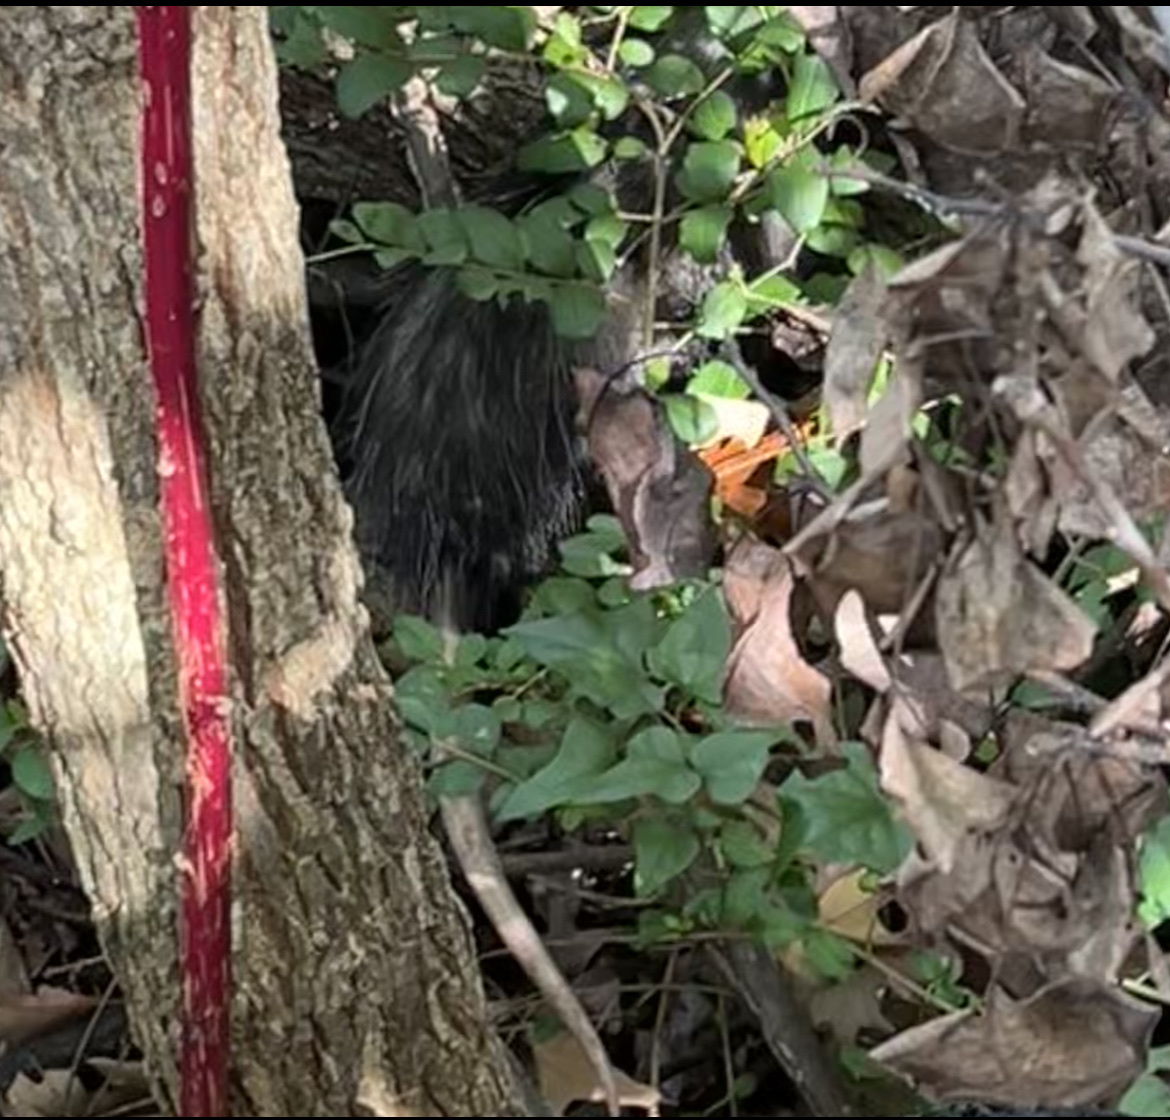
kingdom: Animalia
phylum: Chordata
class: Mammalia
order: Didelphimorphia
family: Didelphidae
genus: Didelphis
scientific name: Didelphis virginiana
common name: Virginia opossum
